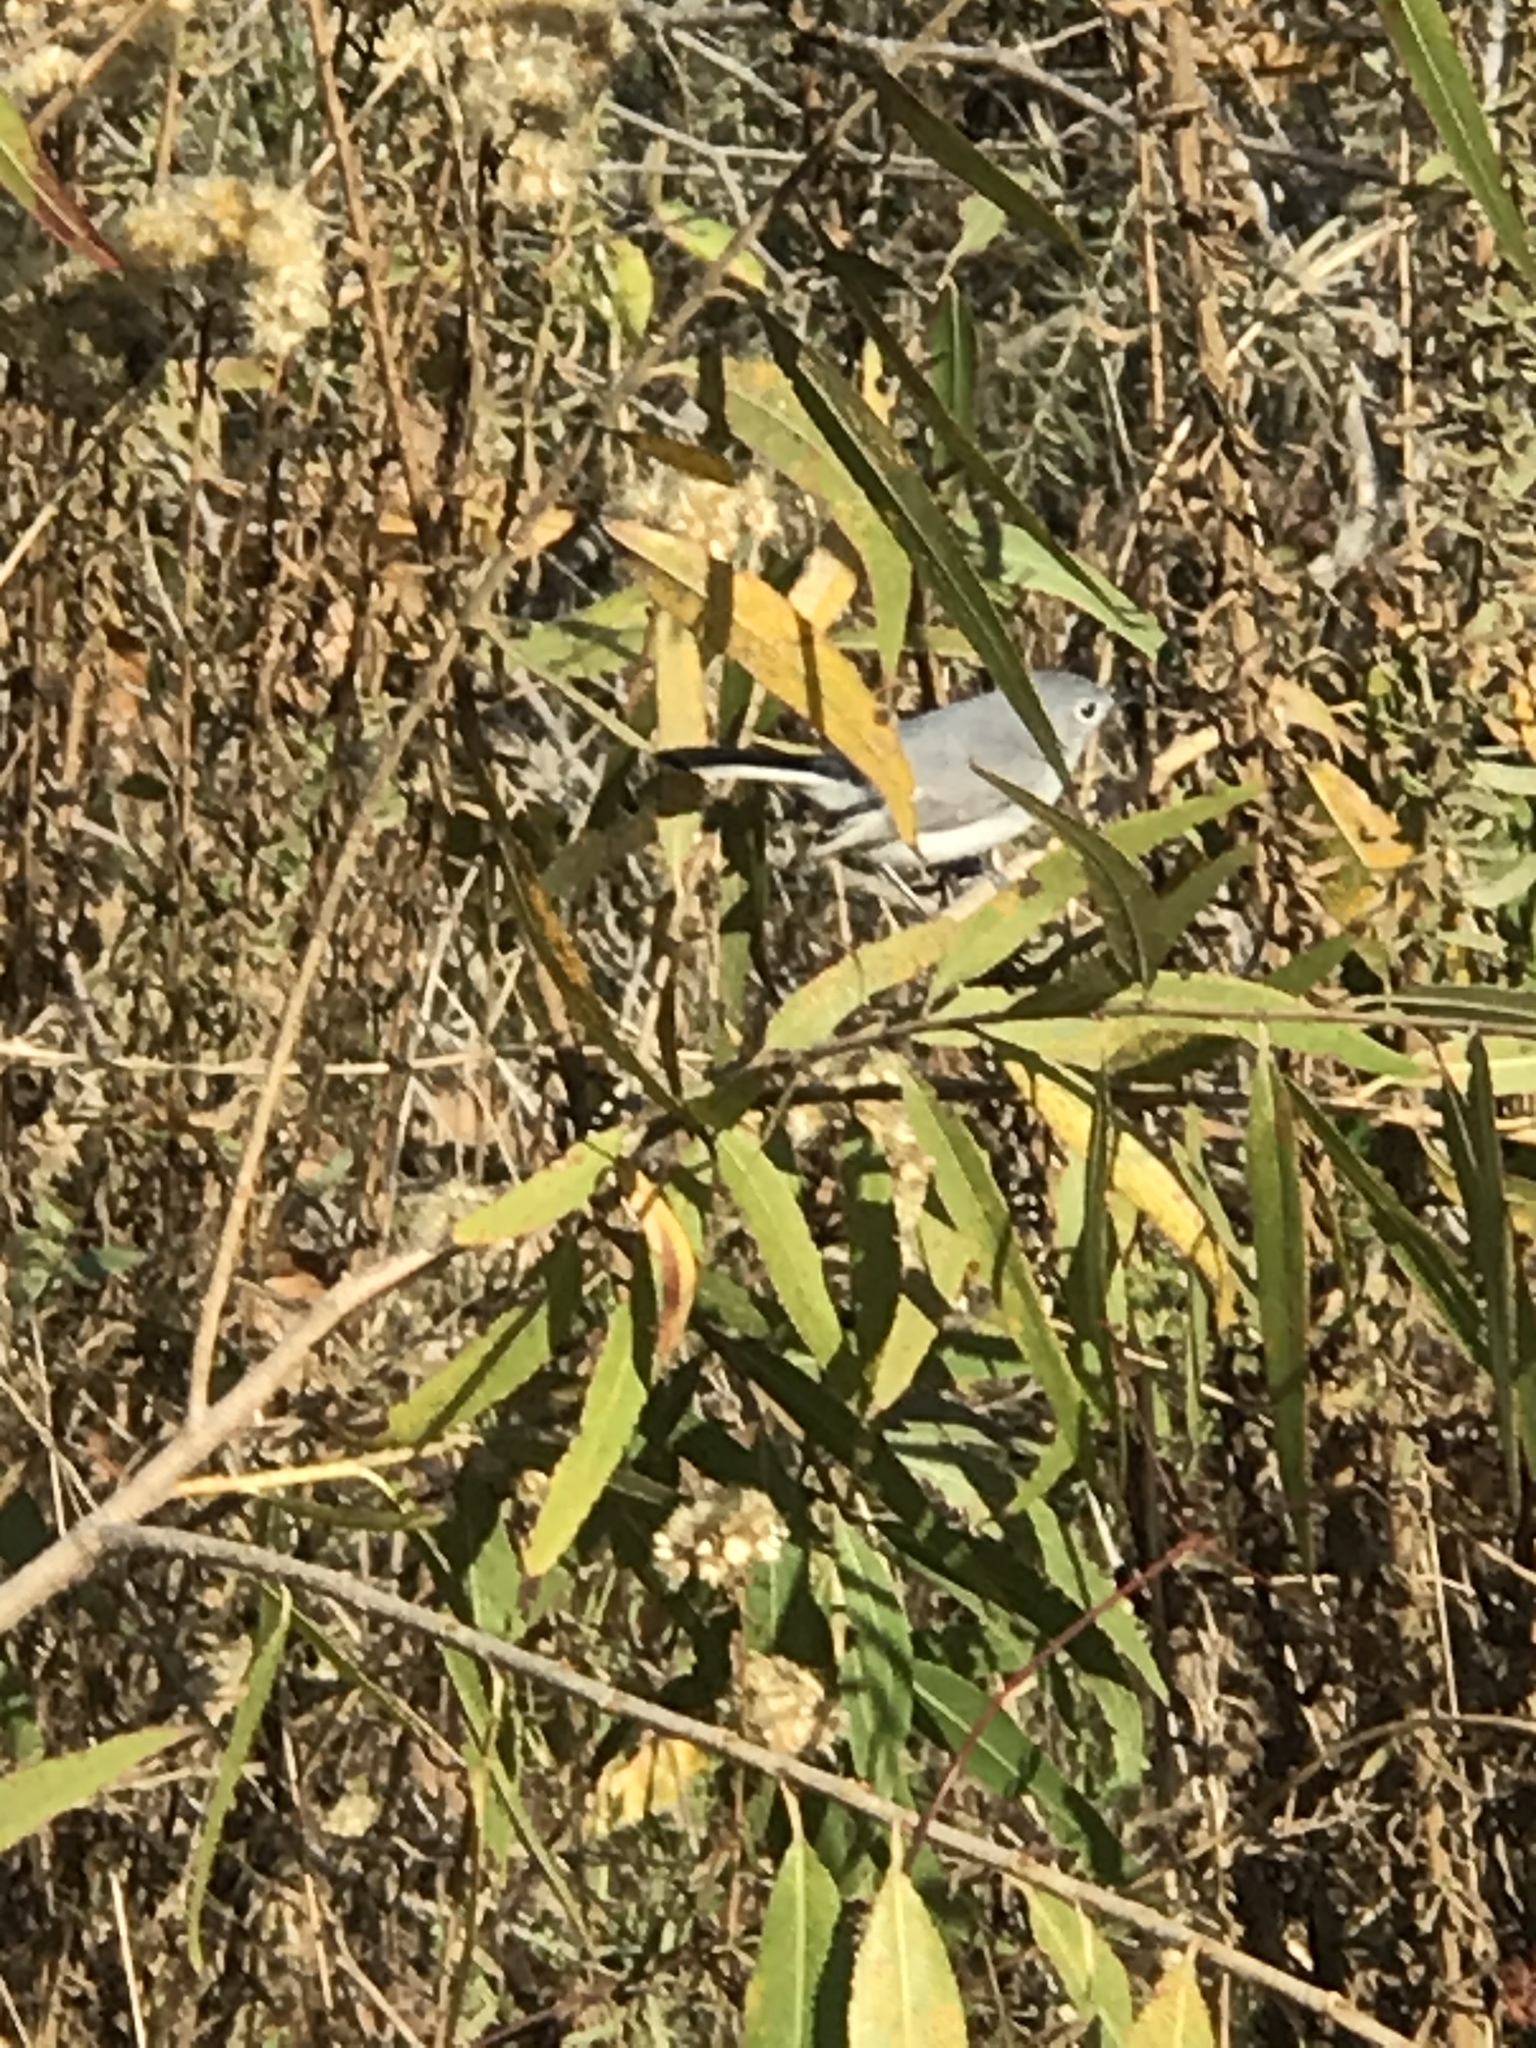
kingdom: Animalia
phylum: Chordata
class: Aves
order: Passeriformes
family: Polioptilidae
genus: Polioptila
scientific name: Polioptila caerulea
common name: Blue-gray gnatcatcher
